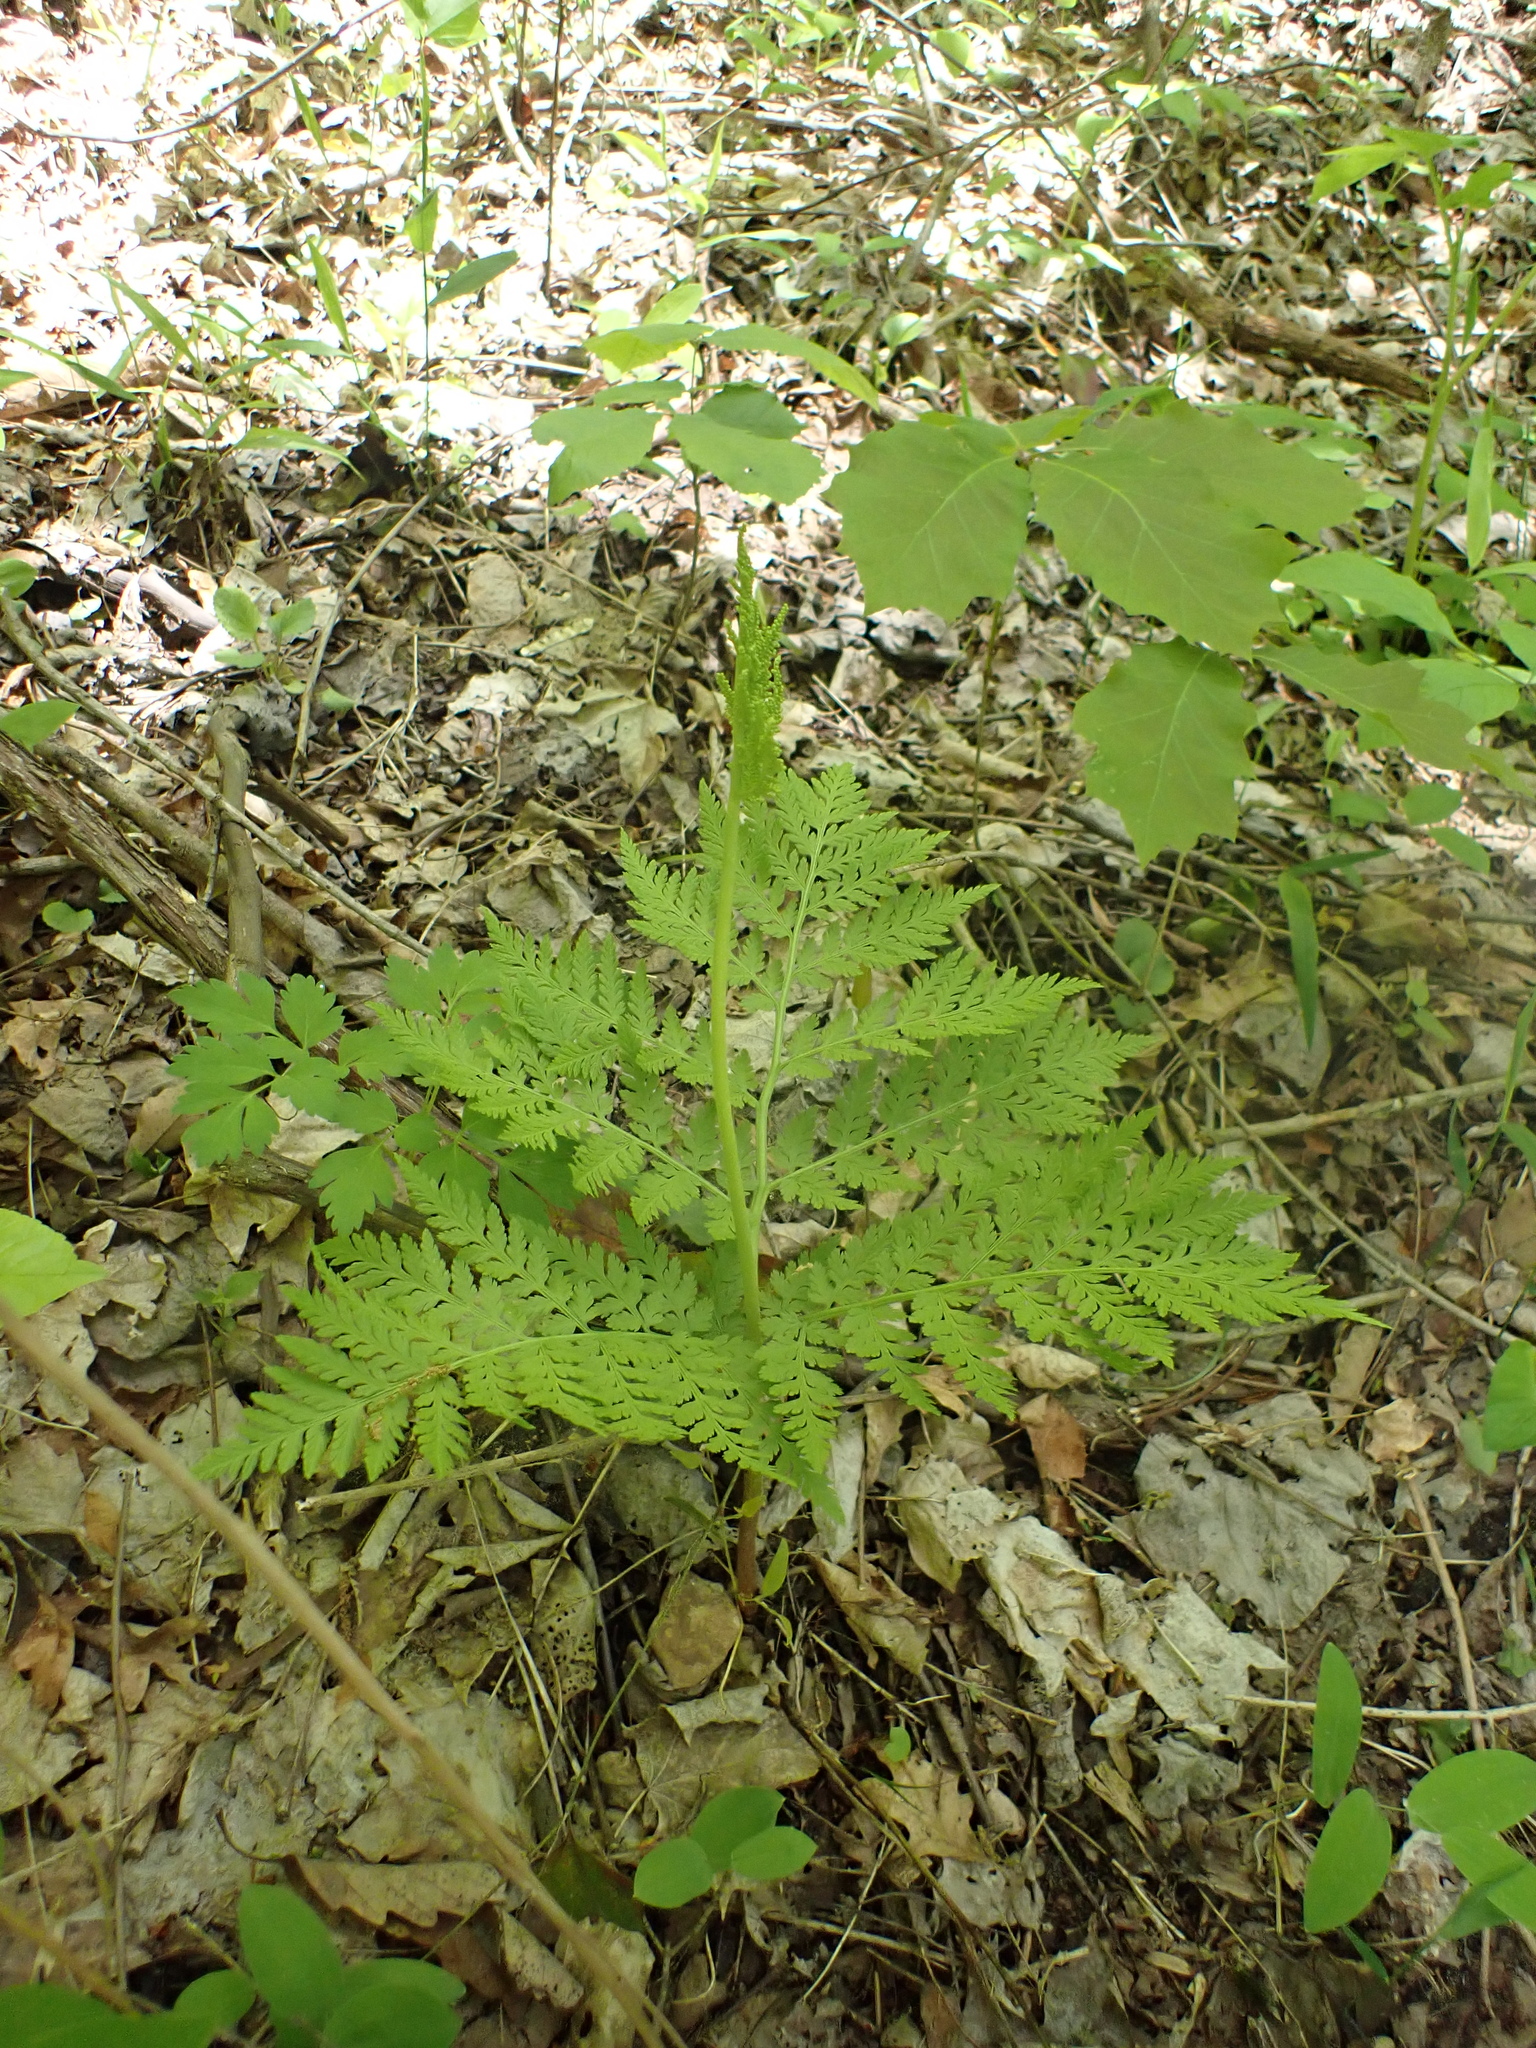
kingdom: Plantae
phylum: Tracheophyta
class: Polypodiopsida
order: Ophioglossales
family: Ophioglossaceae
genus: Botrypus
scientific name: Botrypus virginianus
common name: Common grapefern
